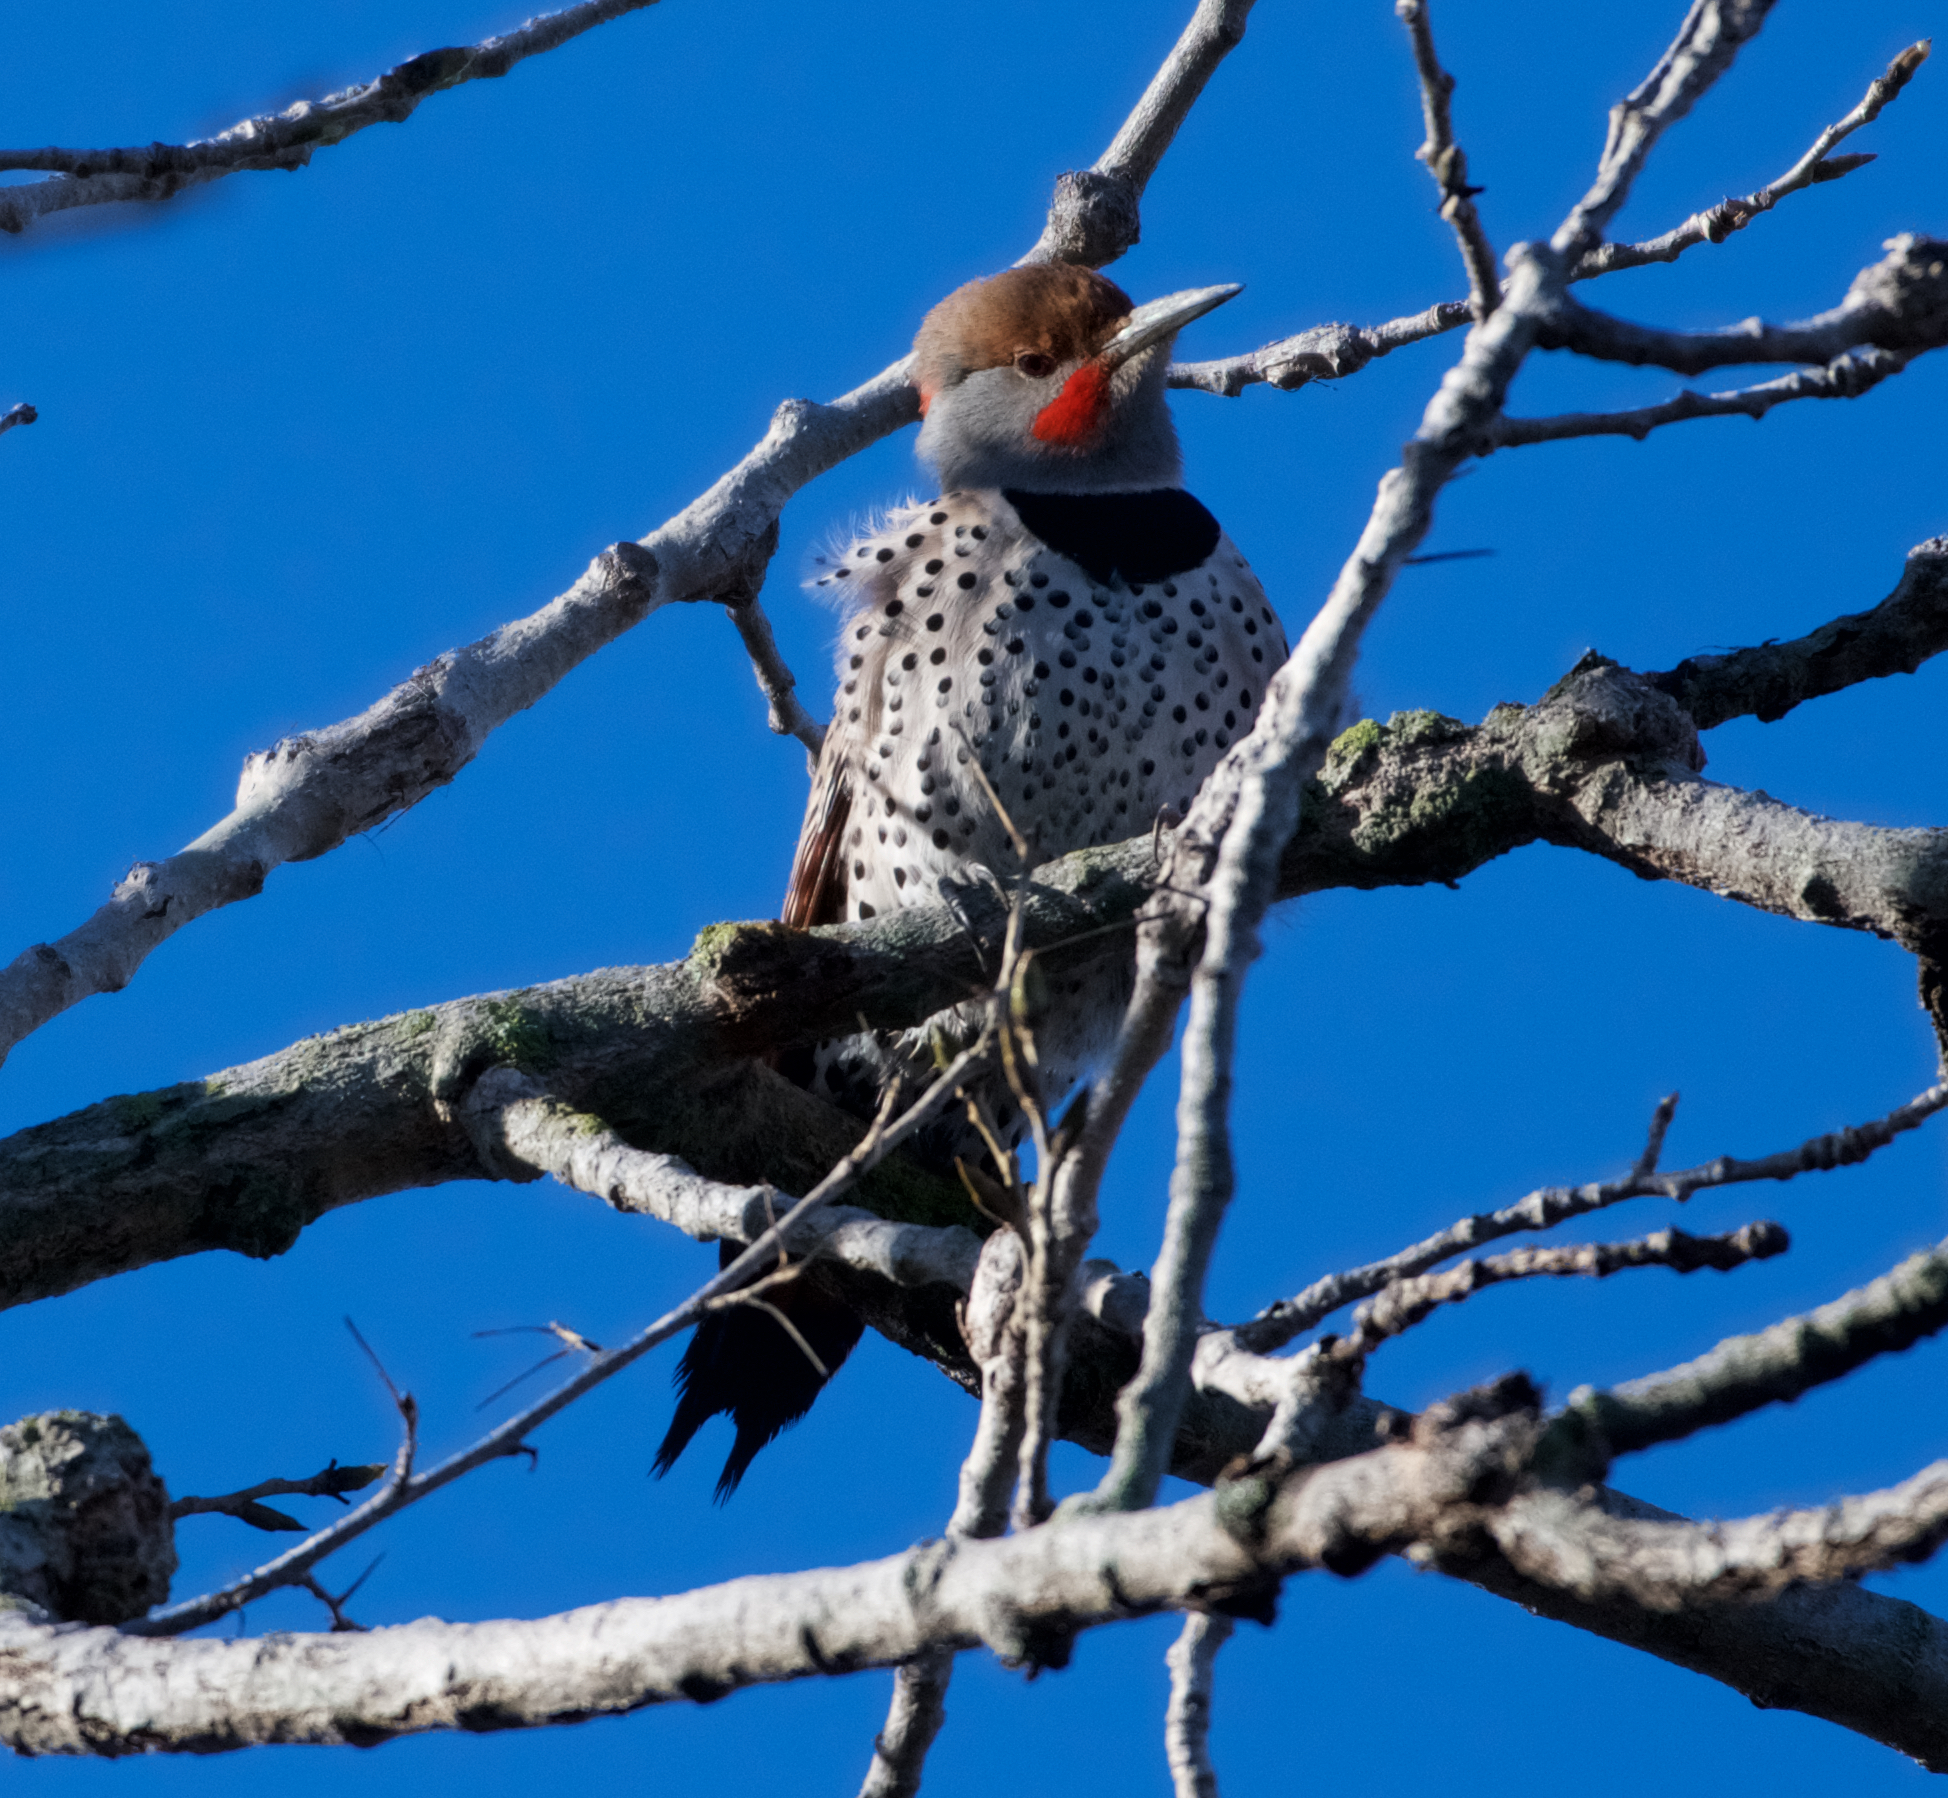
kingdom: Animalia
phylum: Chordata
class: Aves
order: Piciformes
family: Picidae
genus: Colaptes
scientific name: Colaptes auratus
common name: Northern flicker
